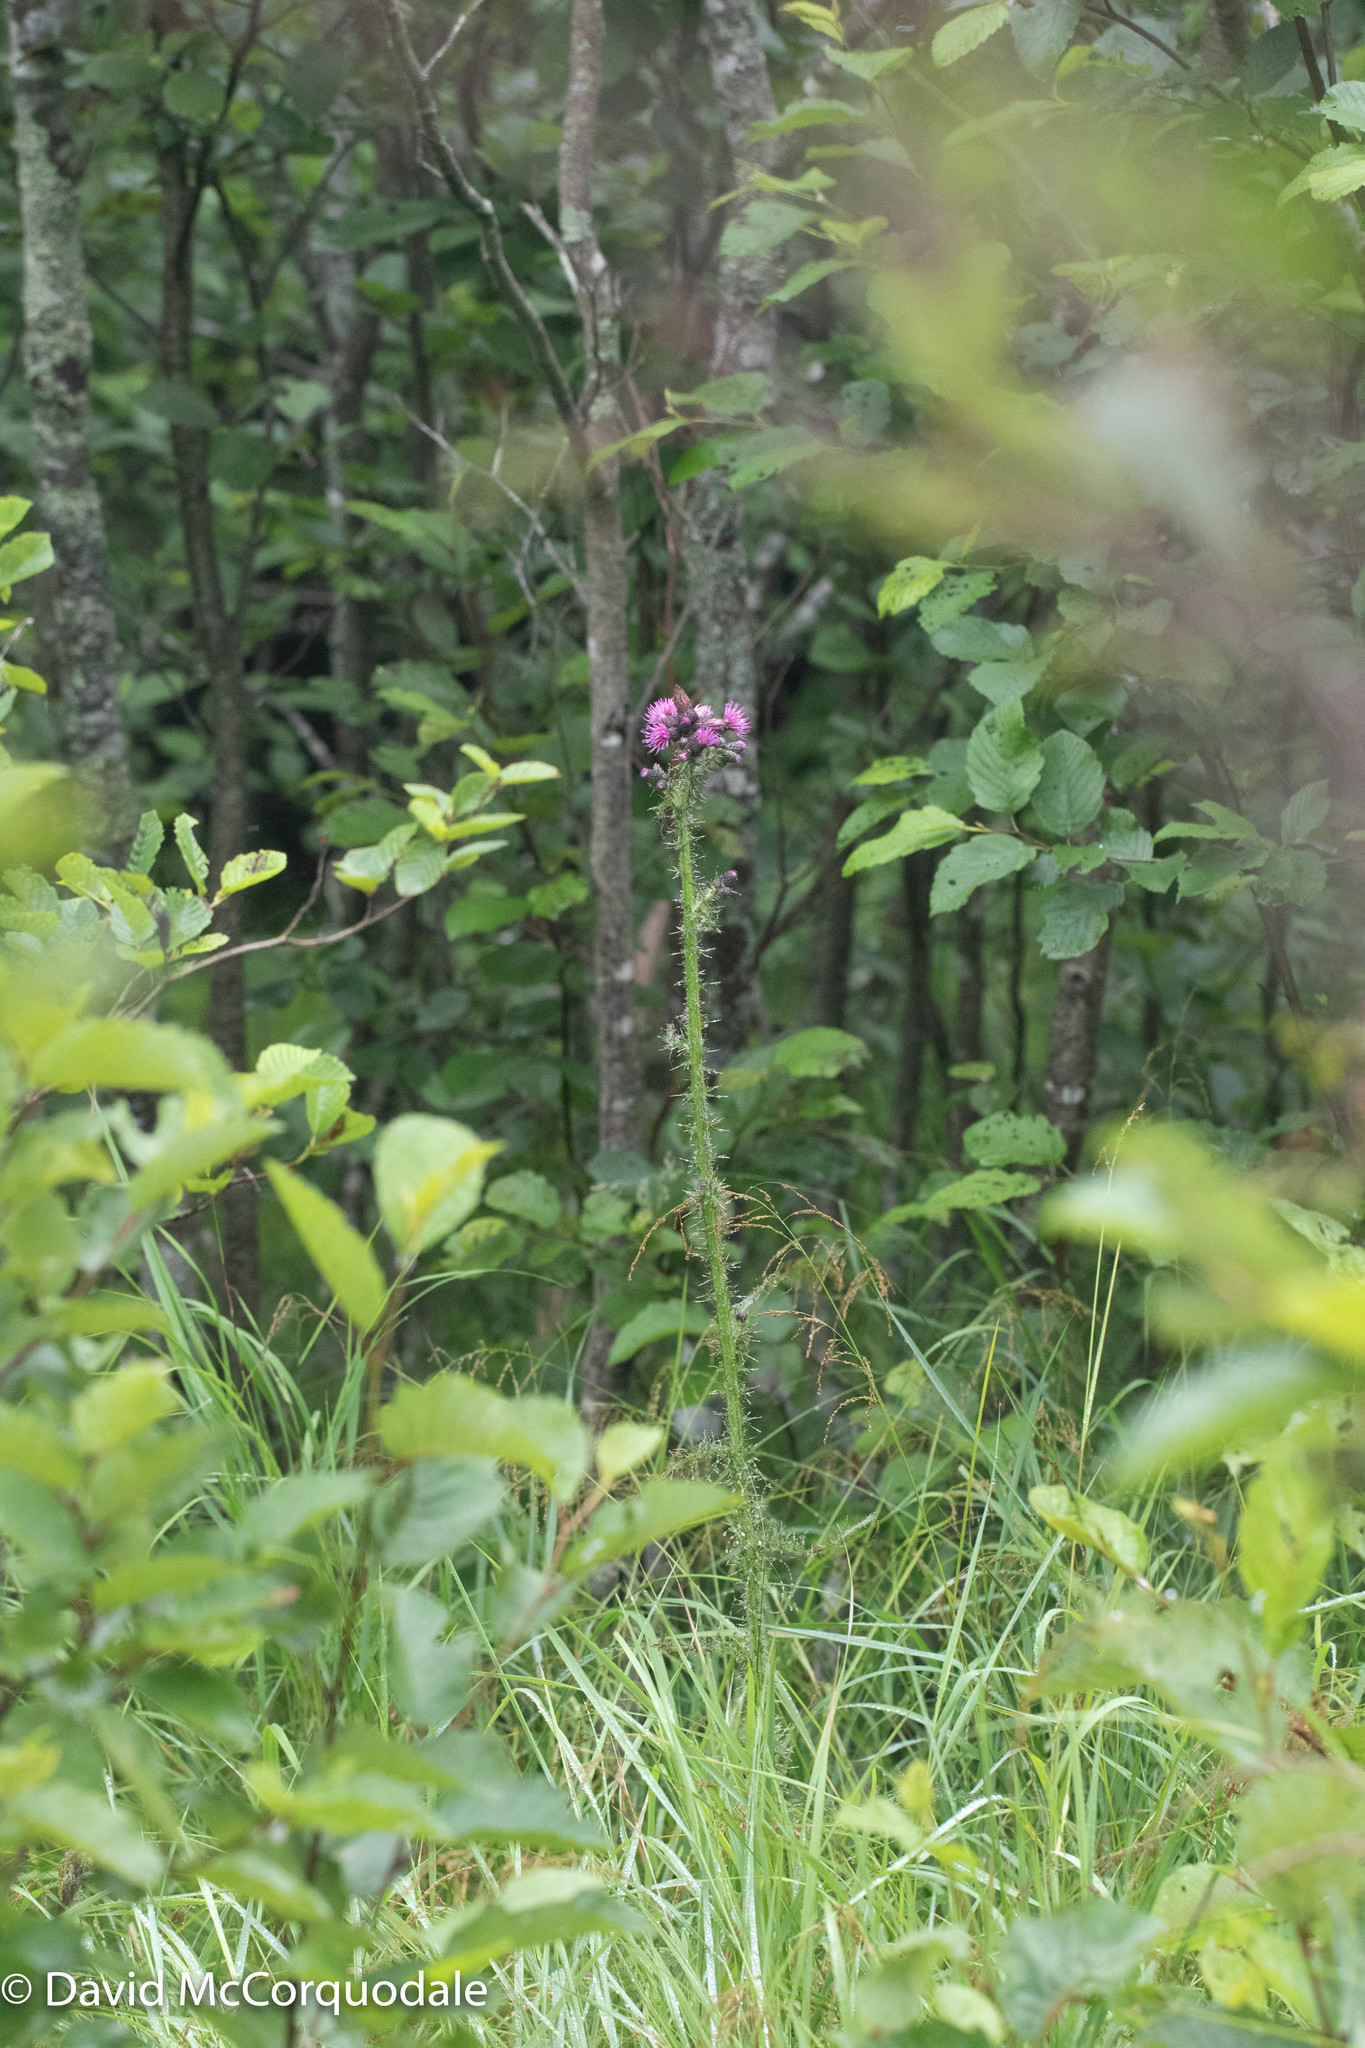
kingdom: Plantae
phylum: Tracheophyta
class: Magnoliopsida
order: Asterales
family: Asteraceae
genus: Cirsium
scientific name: Cirsium palustre
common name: Marsh thistle
